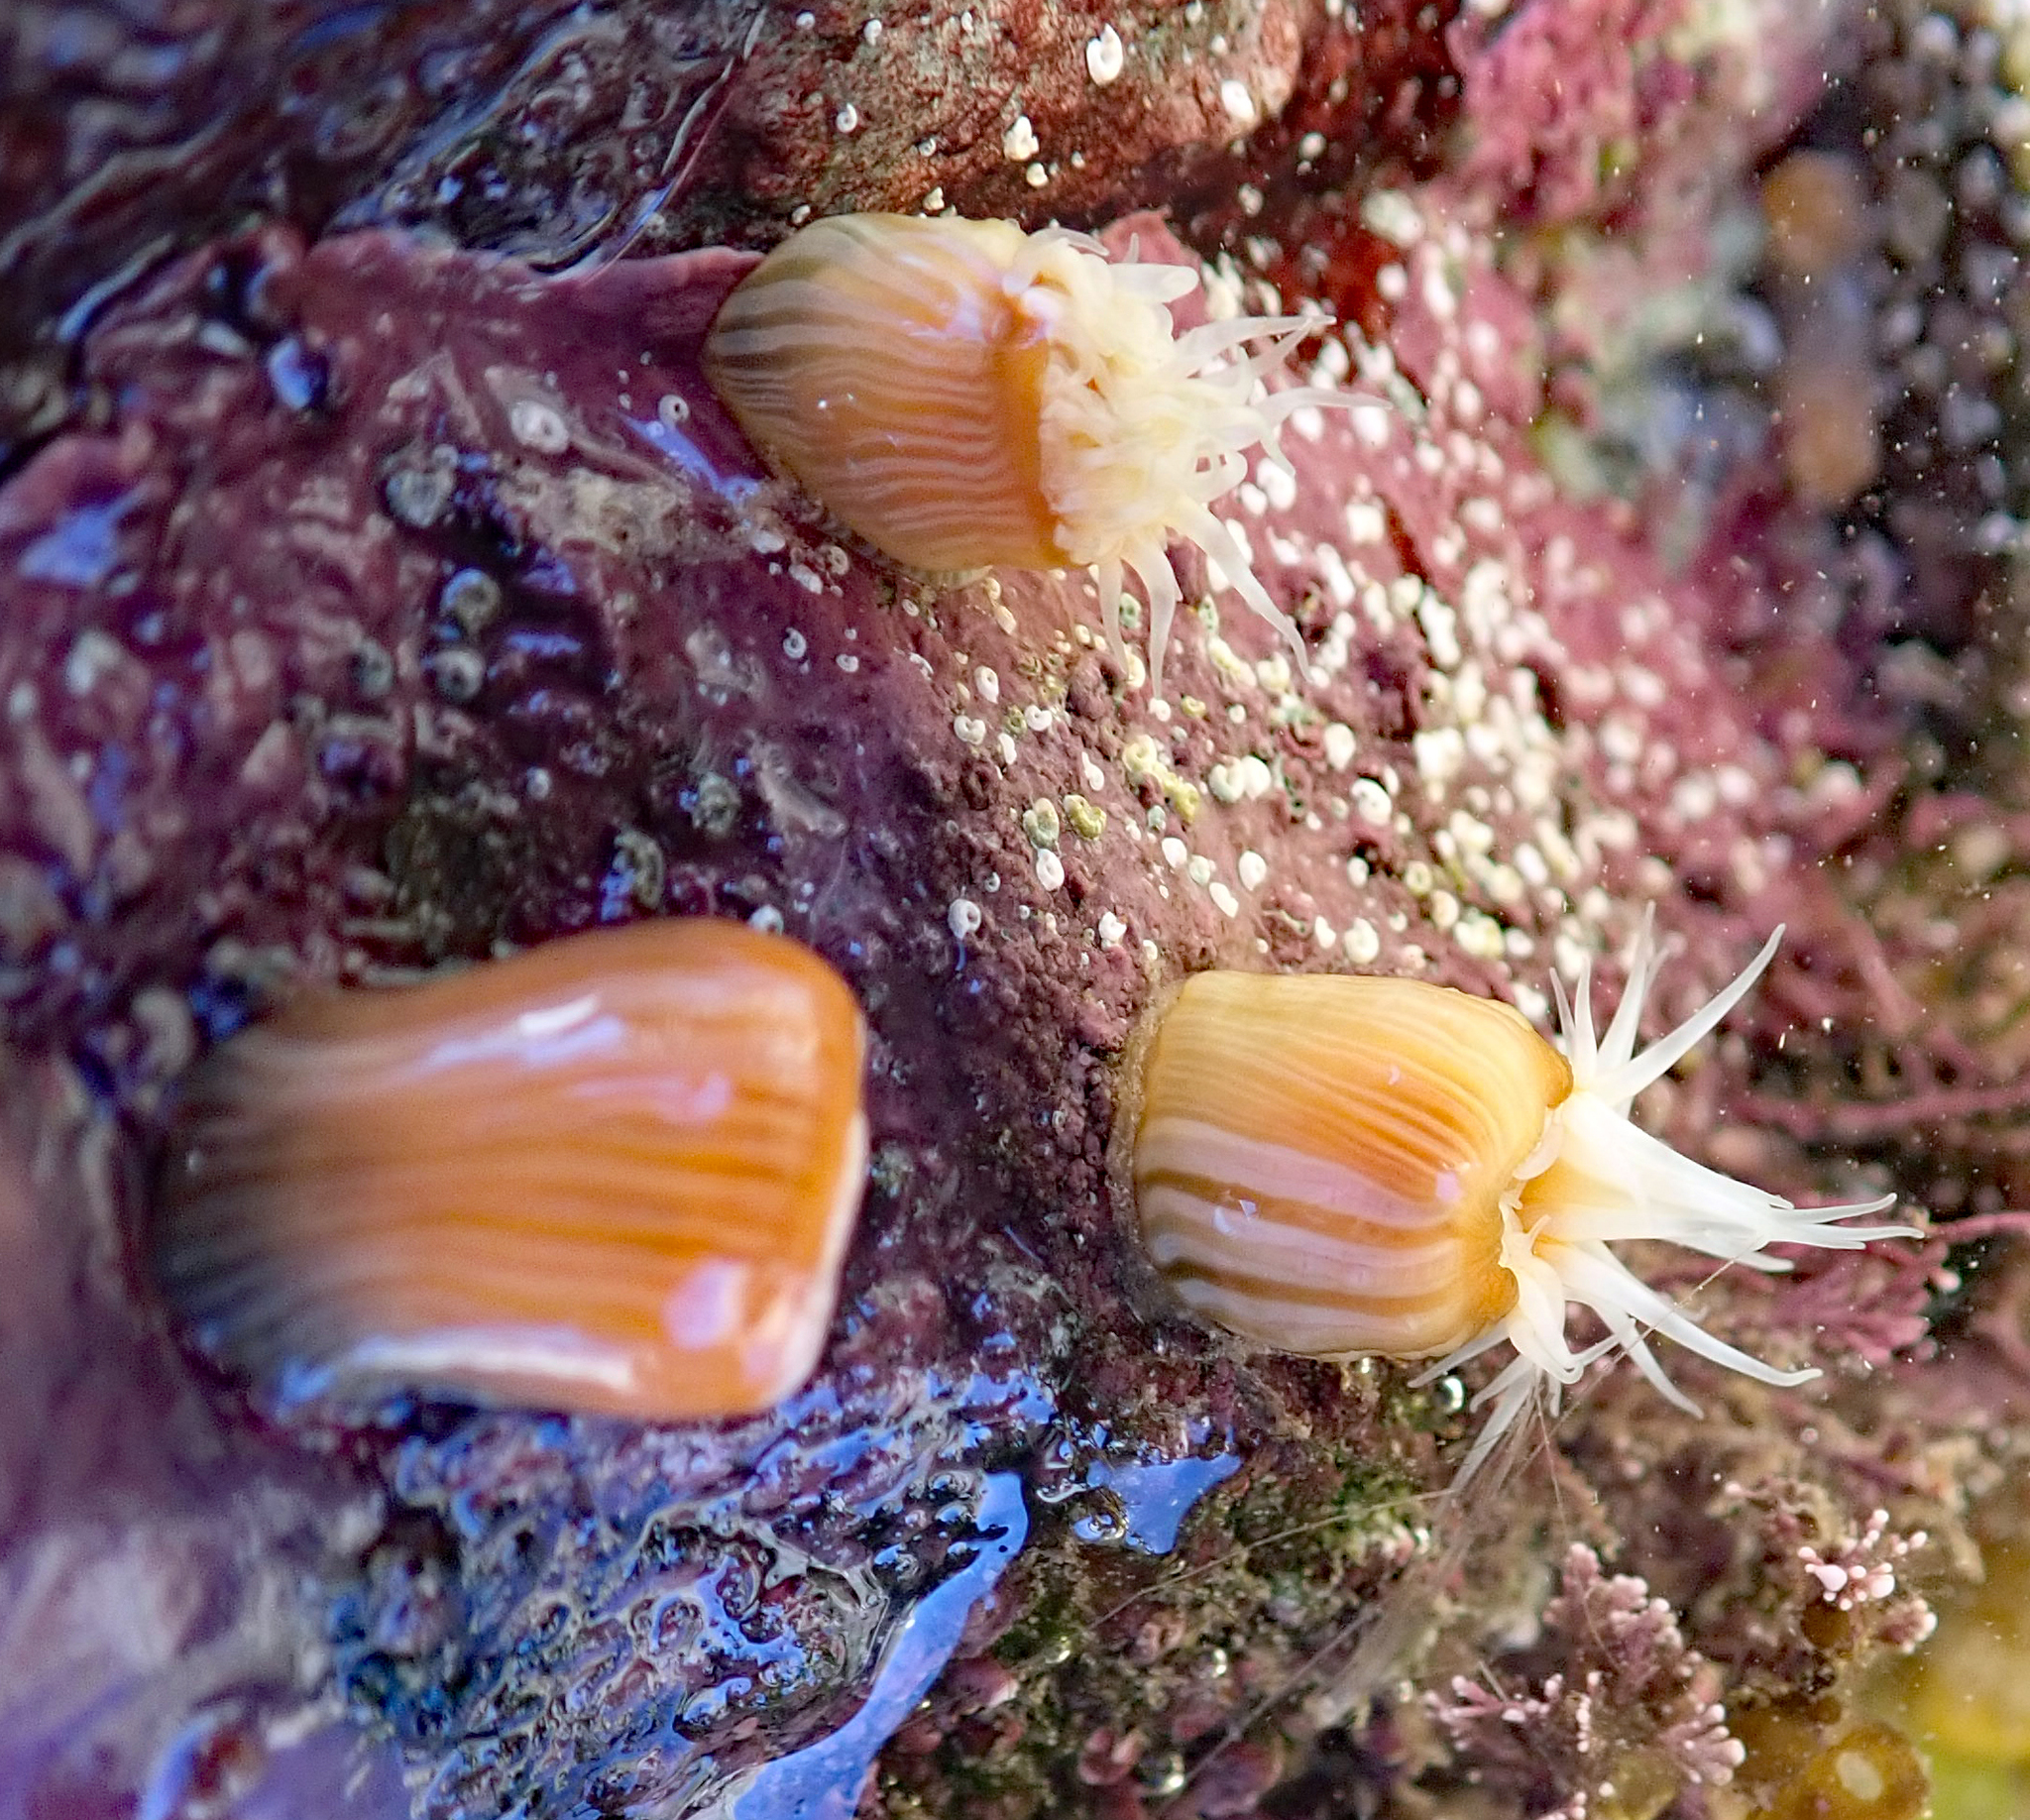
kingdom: Animalia
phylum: Cnidaria
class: Anthozoa
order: Actiniaria
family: Sagartiidae
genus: Anthothoe
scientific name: Anthothoe albocincta
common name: Orange striped anemone
